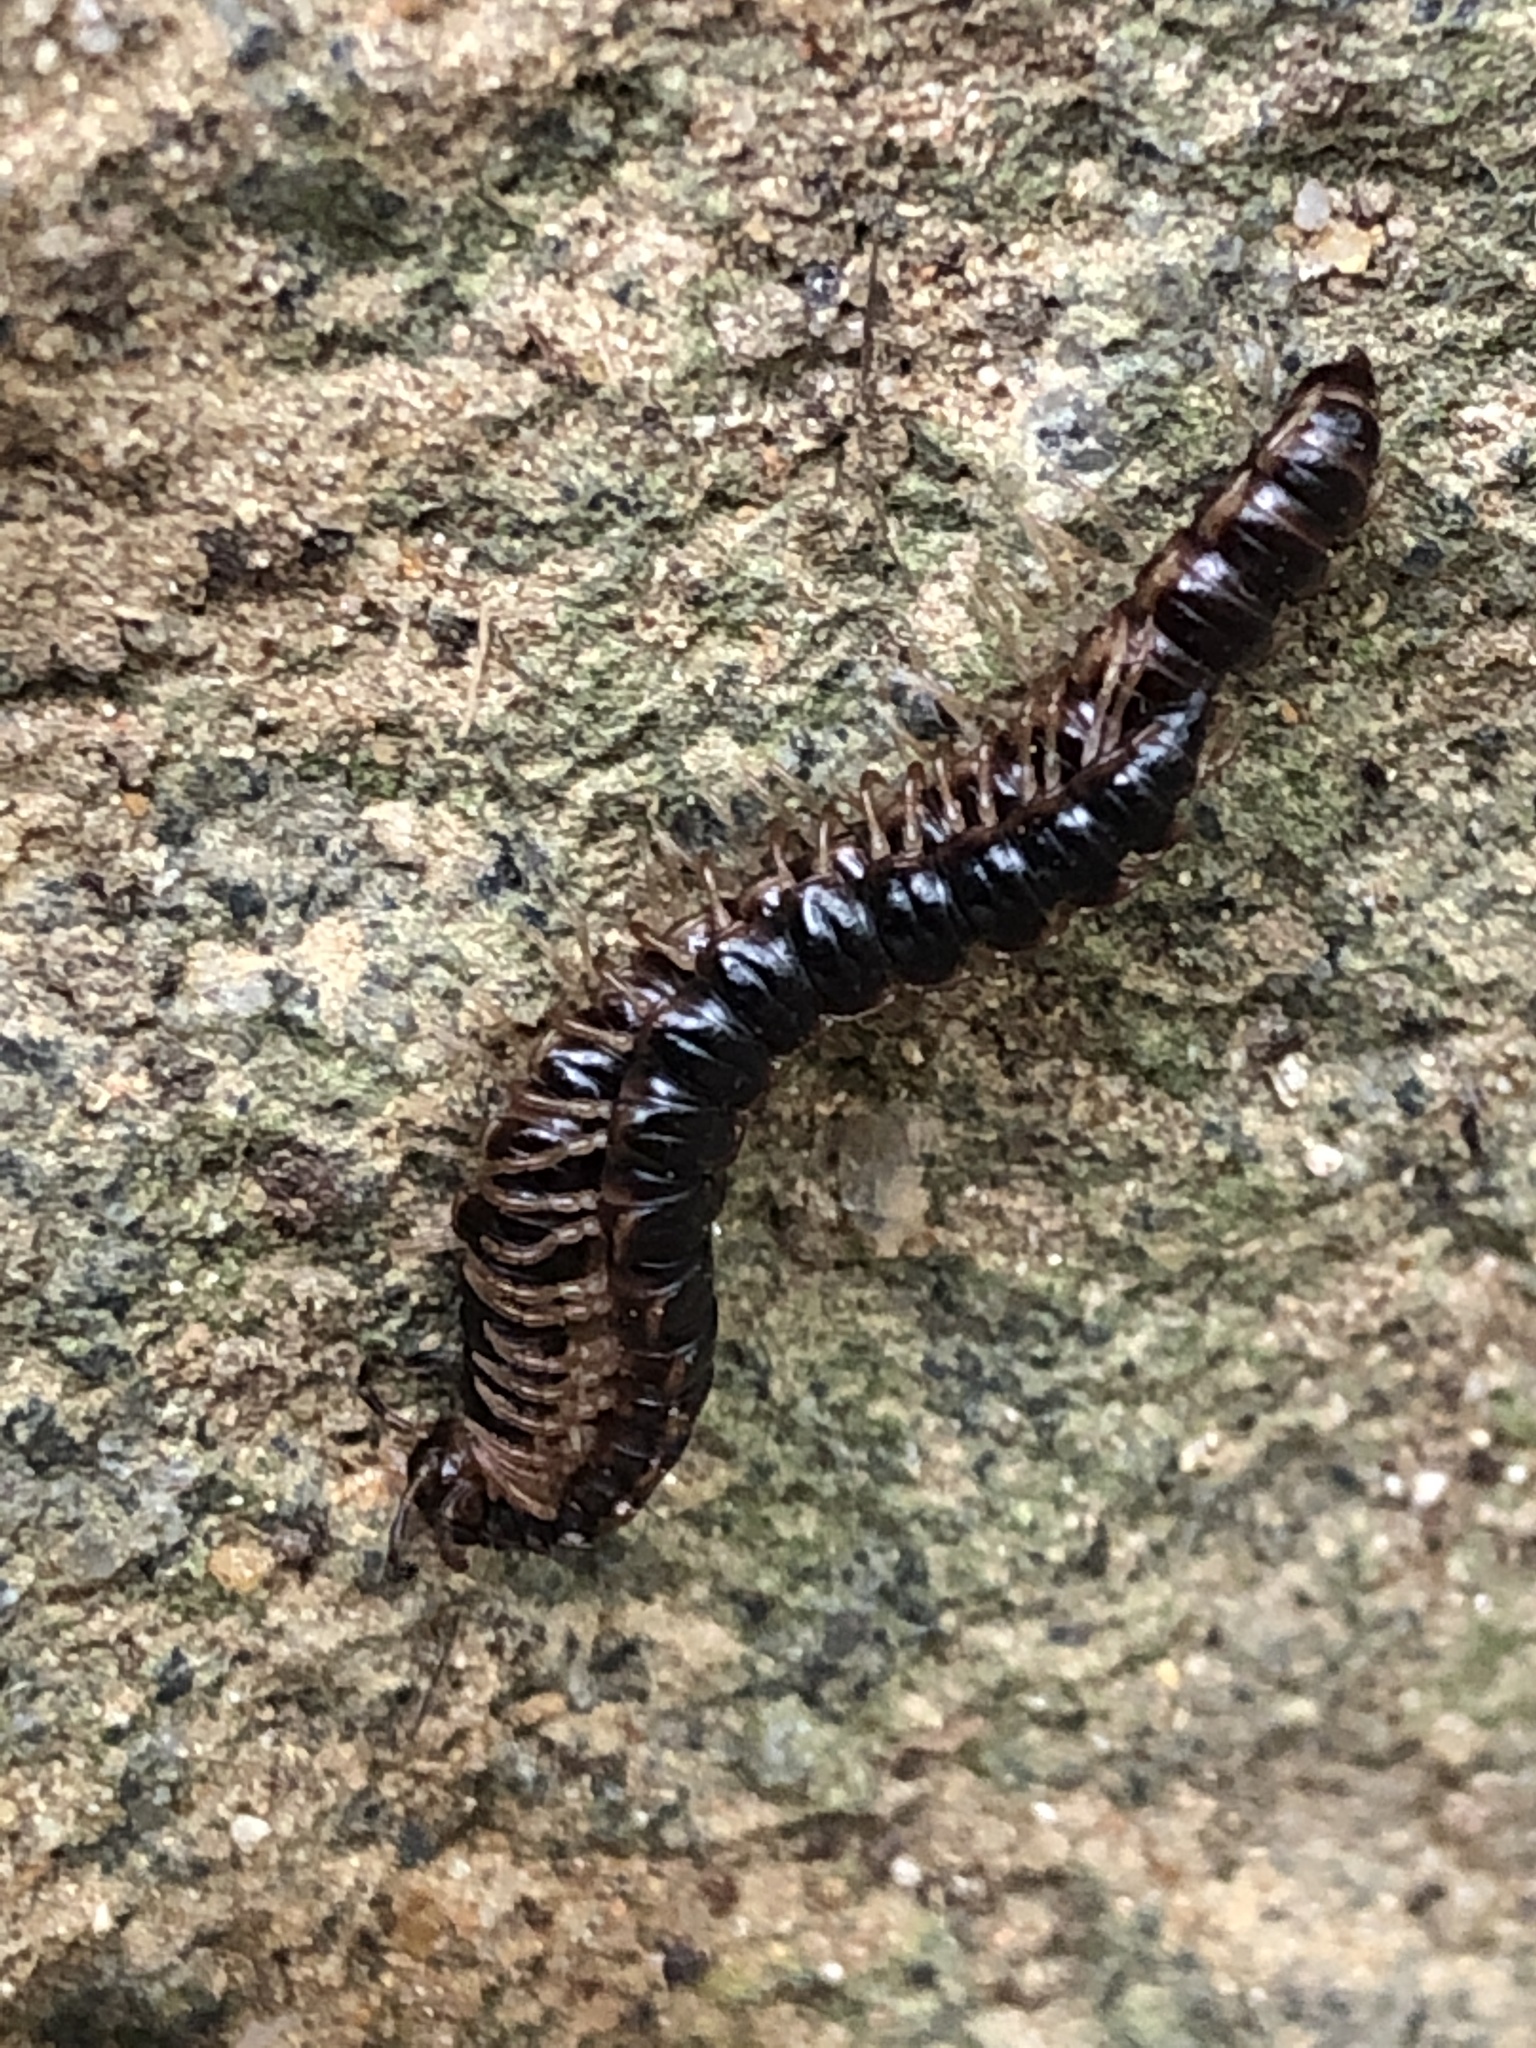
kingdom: Animalia
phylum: Arthropoda
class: Diplopoda
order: Polydesmida
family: Paradoxosomatidae
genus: Oxidus
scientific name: Oxidus gracilis
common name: Greenhouse millipede
